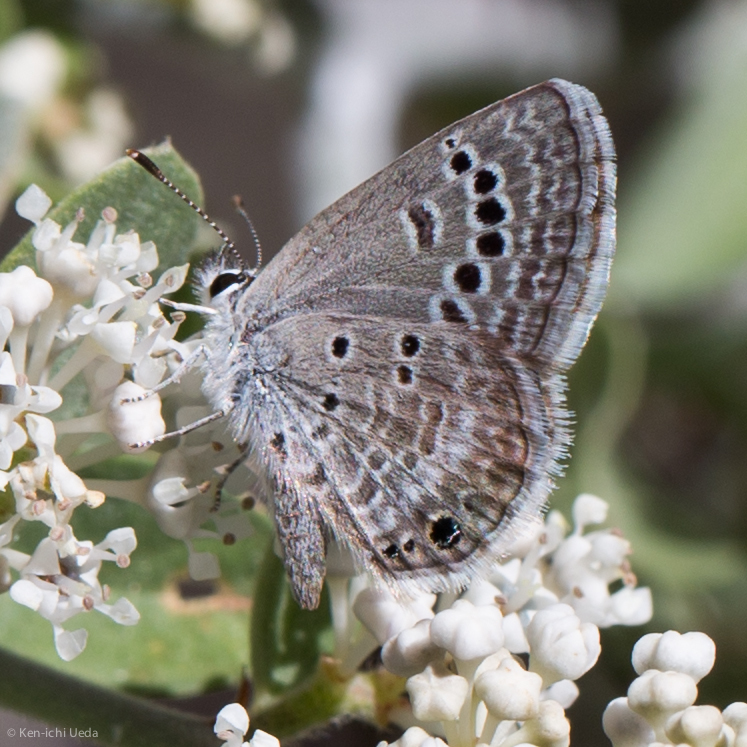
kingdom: Animalia
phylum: Arthropoda
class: Insecta
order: Lepidoptera
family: Lycaenidae
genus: Echinargus
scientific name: Echinargus isola
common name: Reakirt's blue
